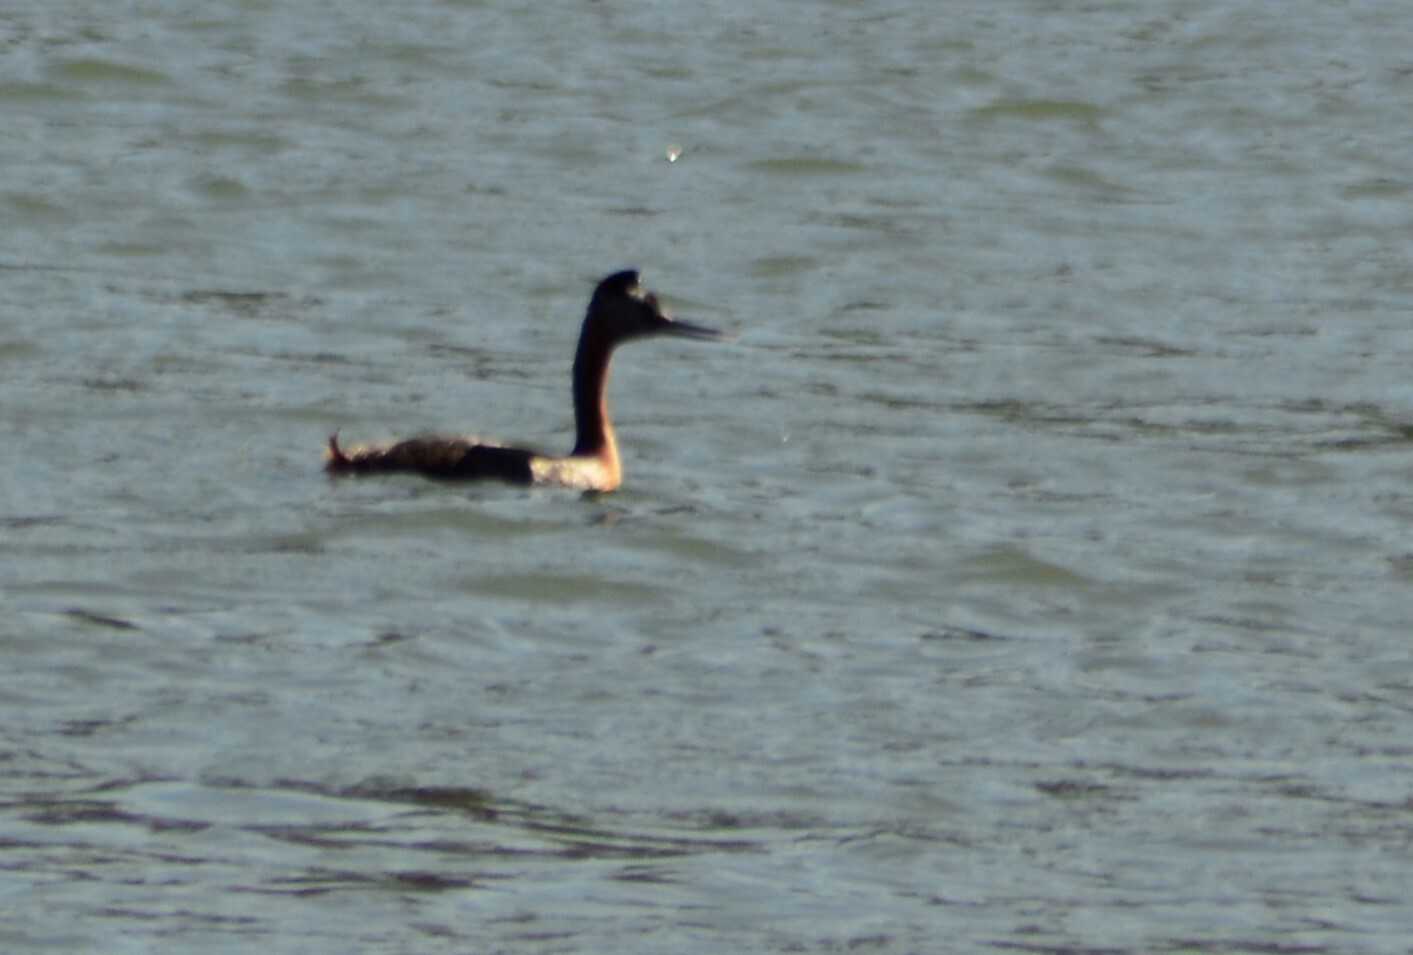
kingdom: Animalia
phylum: Chordata
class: Aves
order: Podicipediformes
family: Podicipedidae
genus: Podiceps
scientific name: Podiceps major
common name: Great grebe
